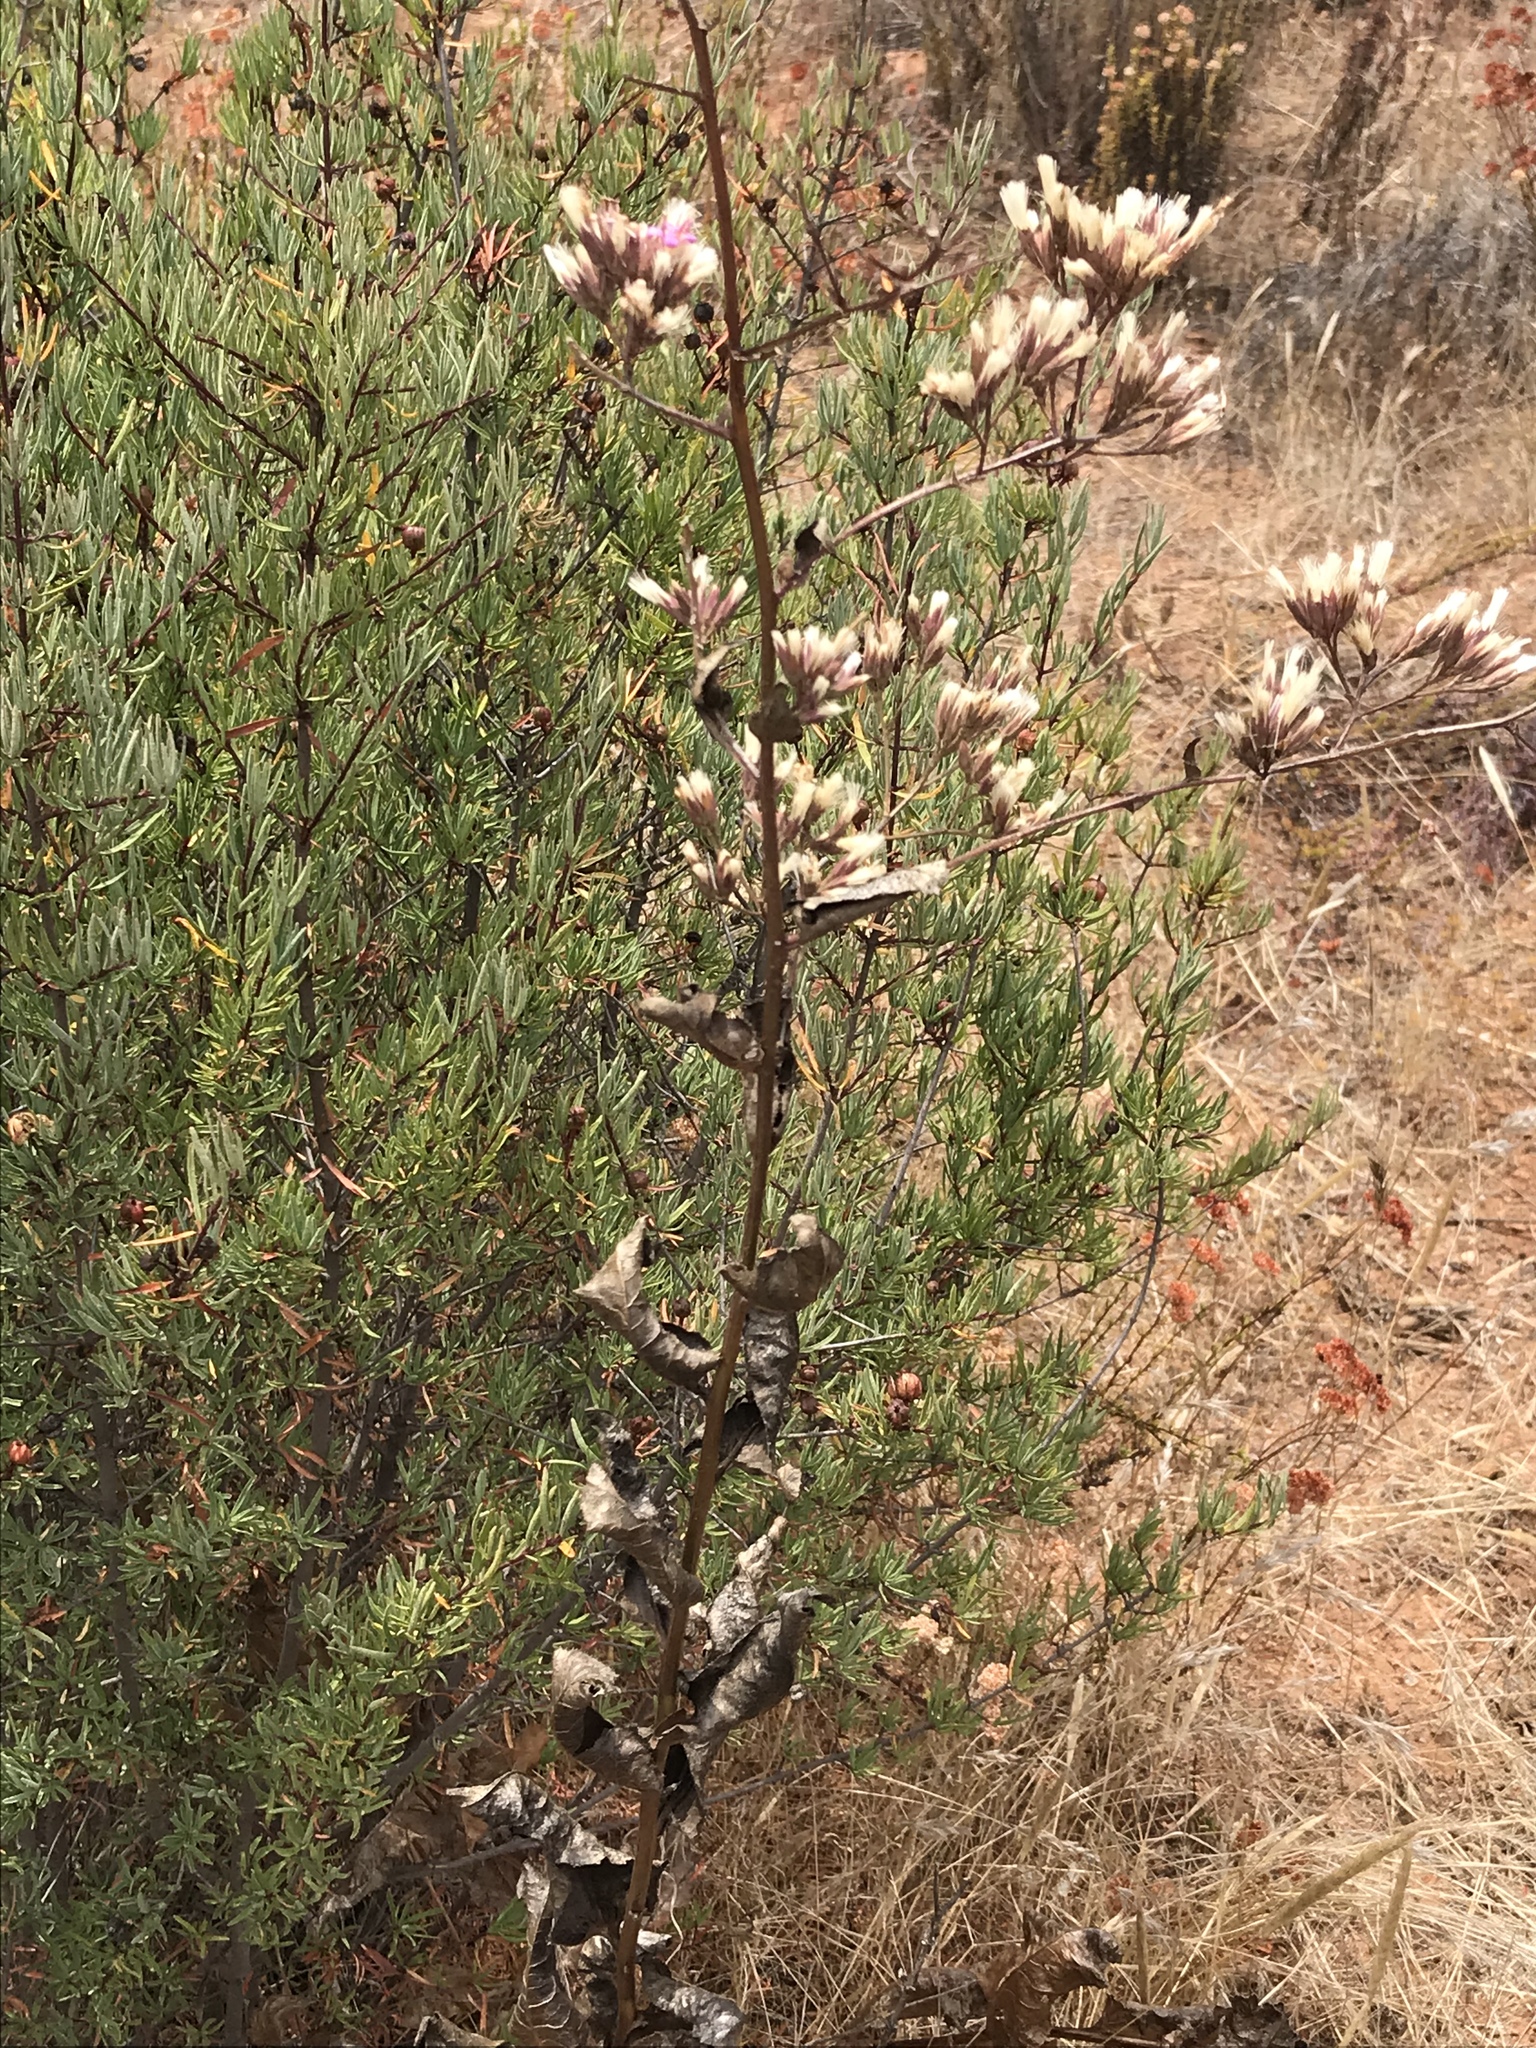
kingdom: Plantae
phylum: Tracheophyta
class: Magnoliopsida
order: Asterales
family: Asteraceae
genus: Acourtia
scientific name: Acourtia microcephala
